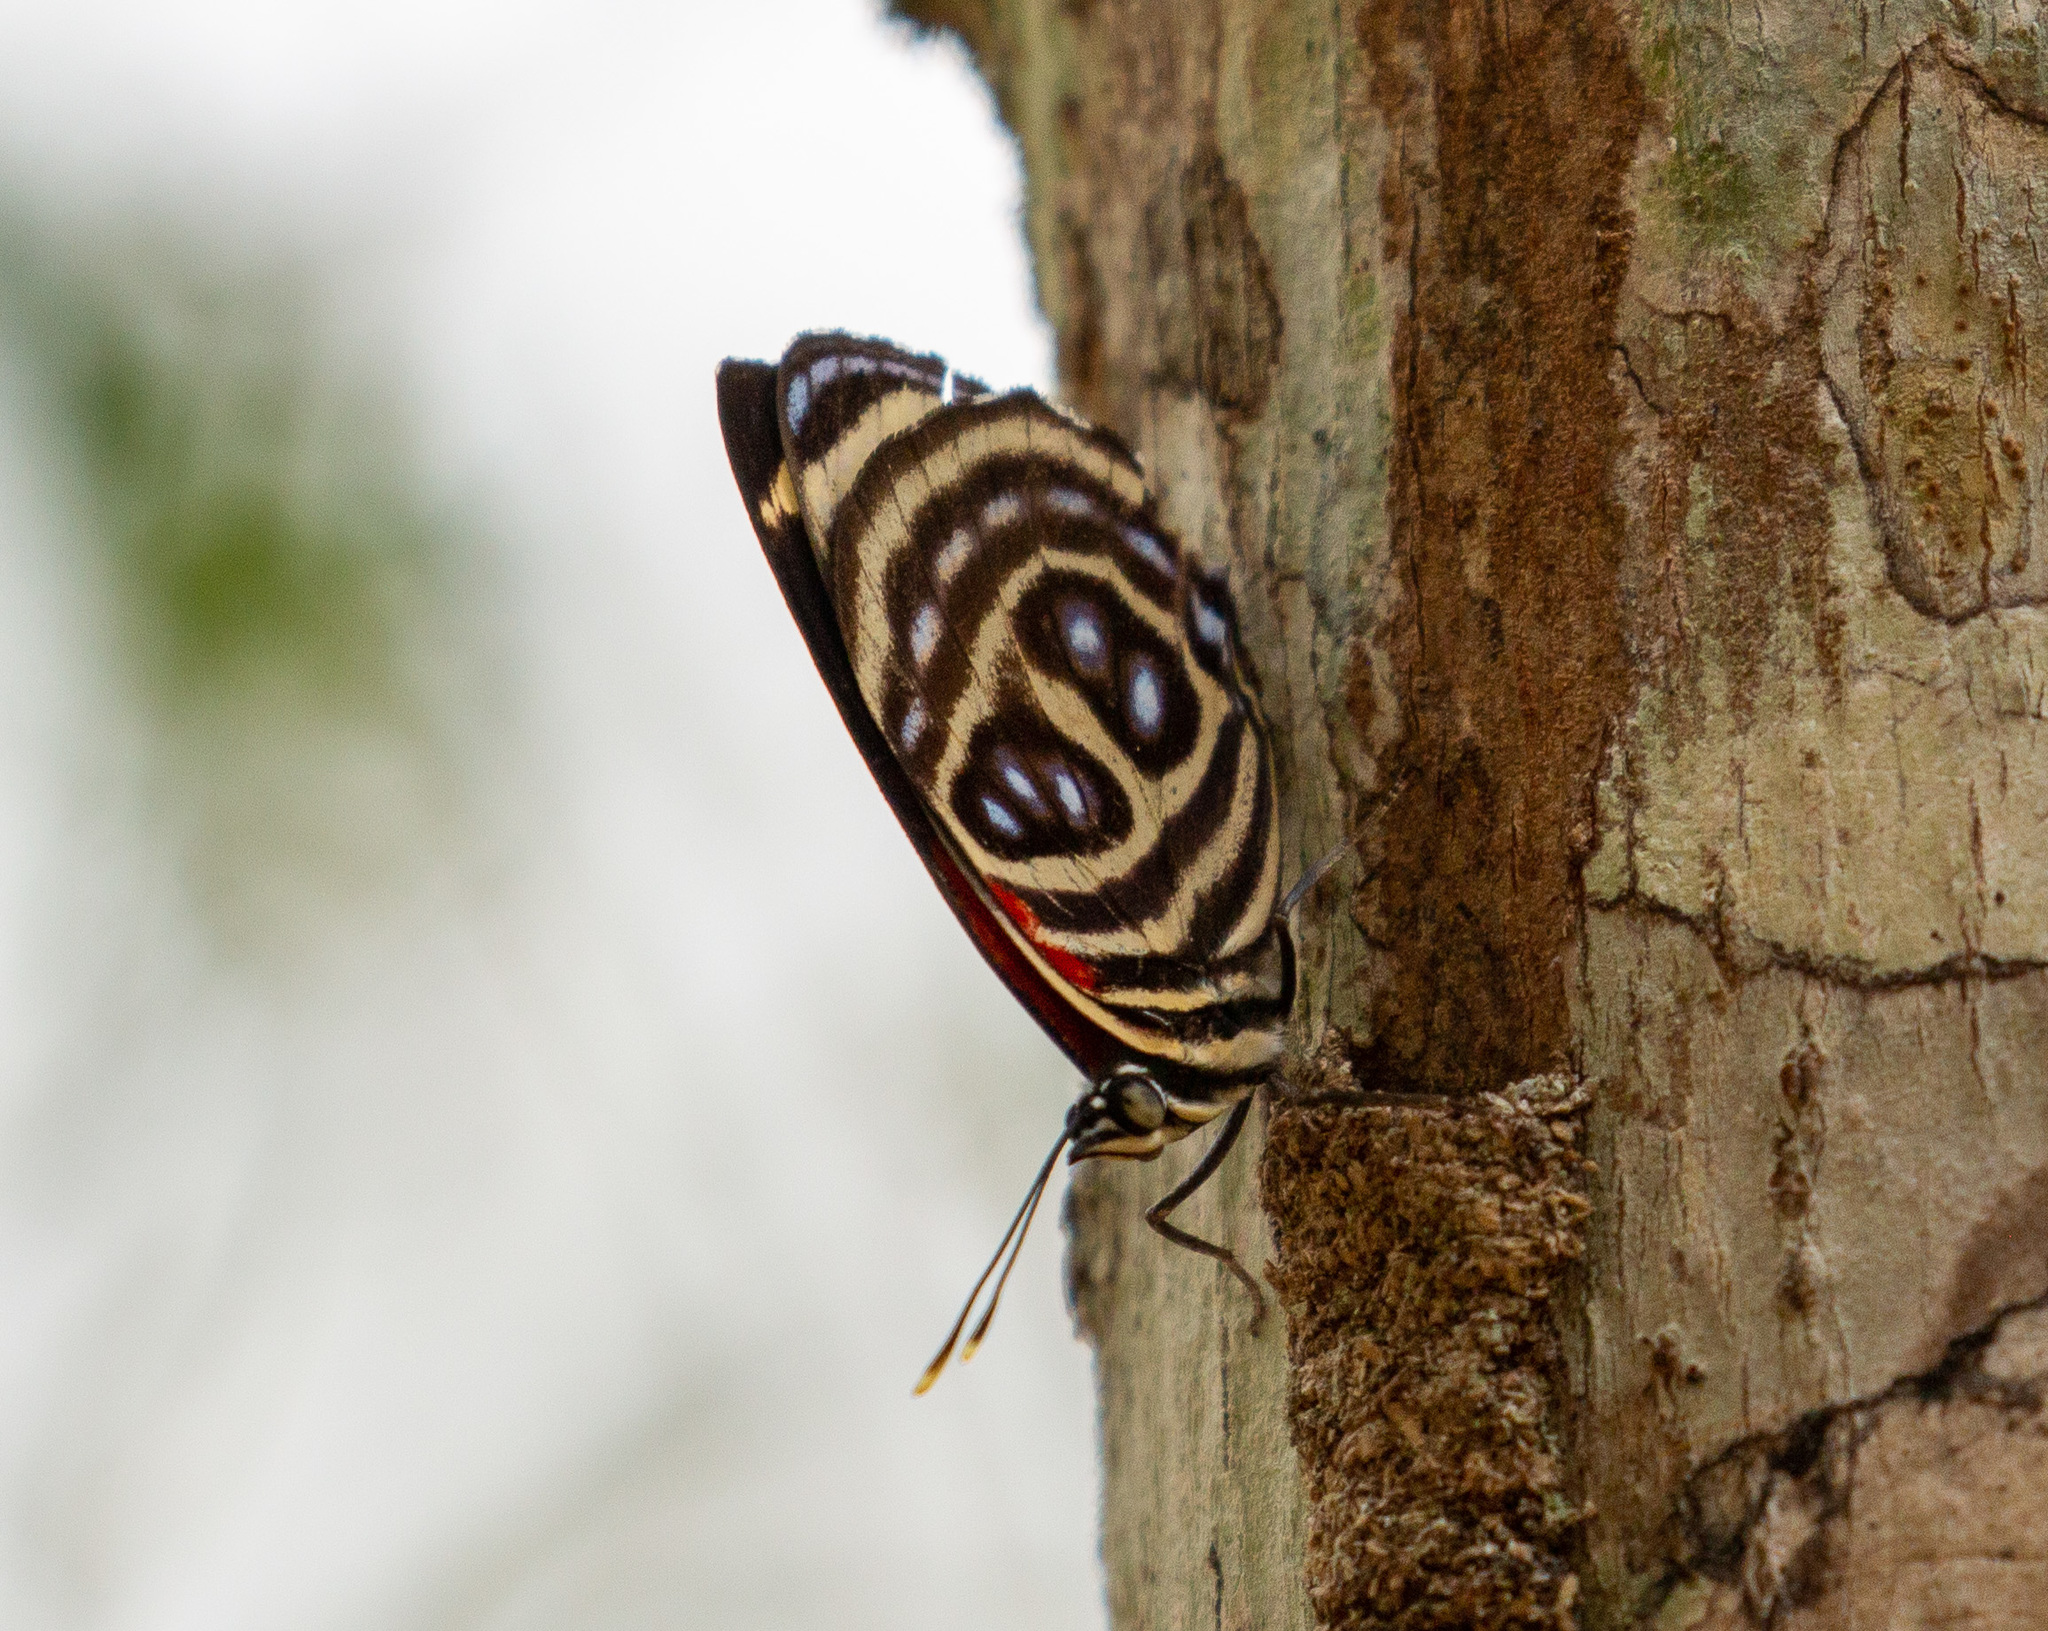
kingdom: Animalia
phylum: Arthropoda
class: Insecta
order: Lepidoptera
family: Nymphalidae
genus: Catagramma
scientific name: Catagramma pygas
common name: Godart's numberwing
